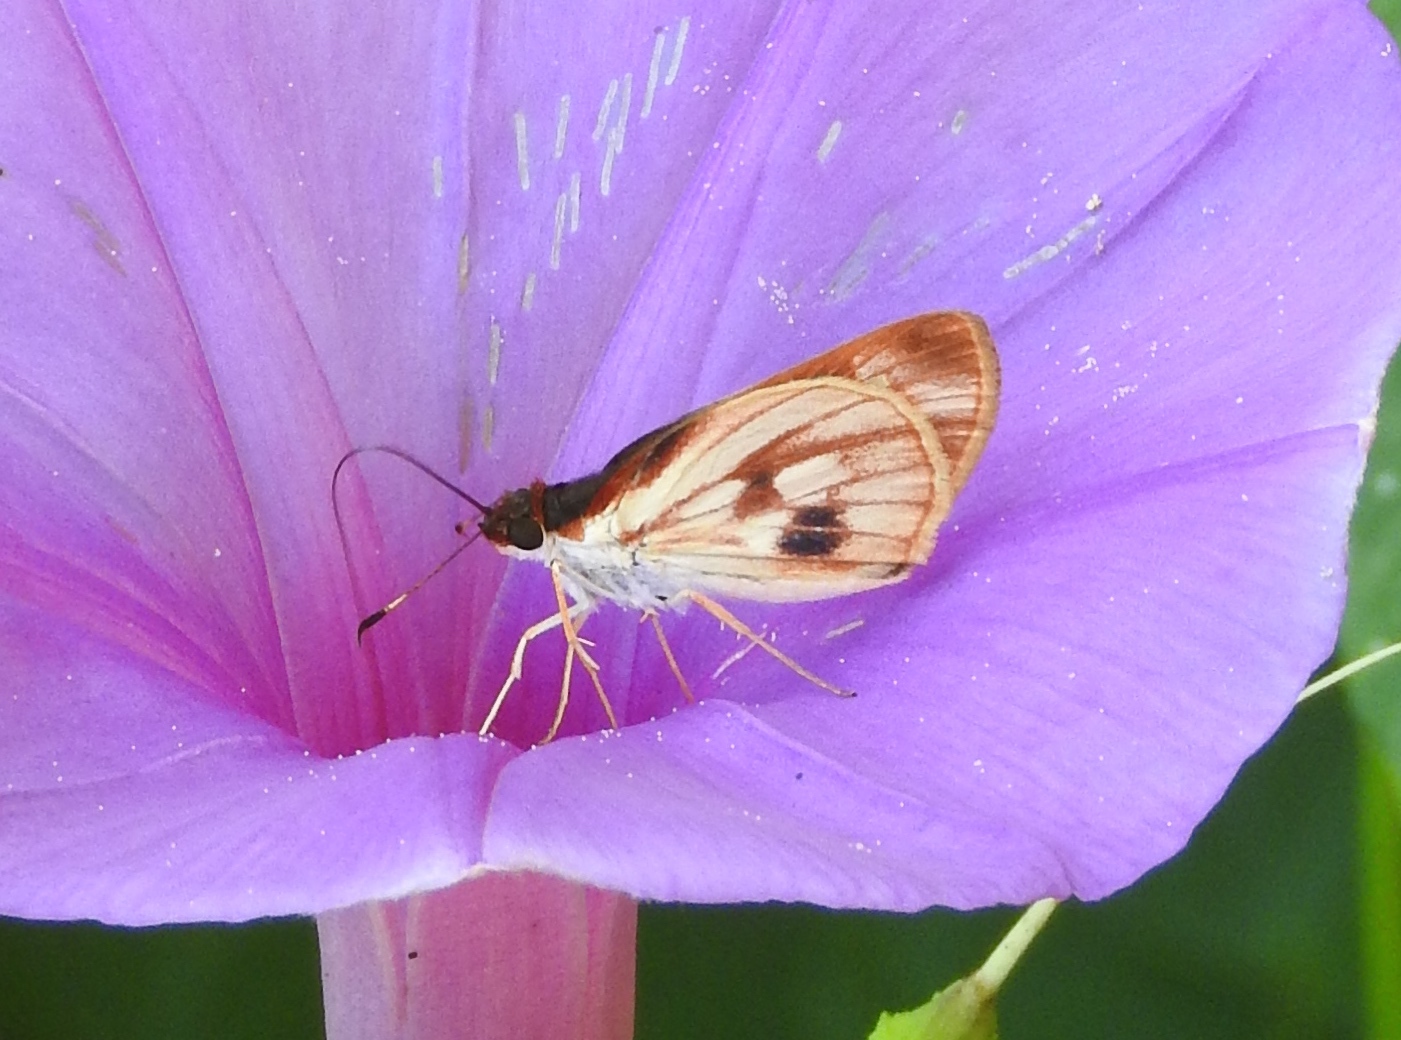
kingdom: Animalia
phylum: Arthropoda
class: Insecta
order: Lepidoptera
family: Hesperiidae
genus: Troyus
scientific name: Troyus fantasos
